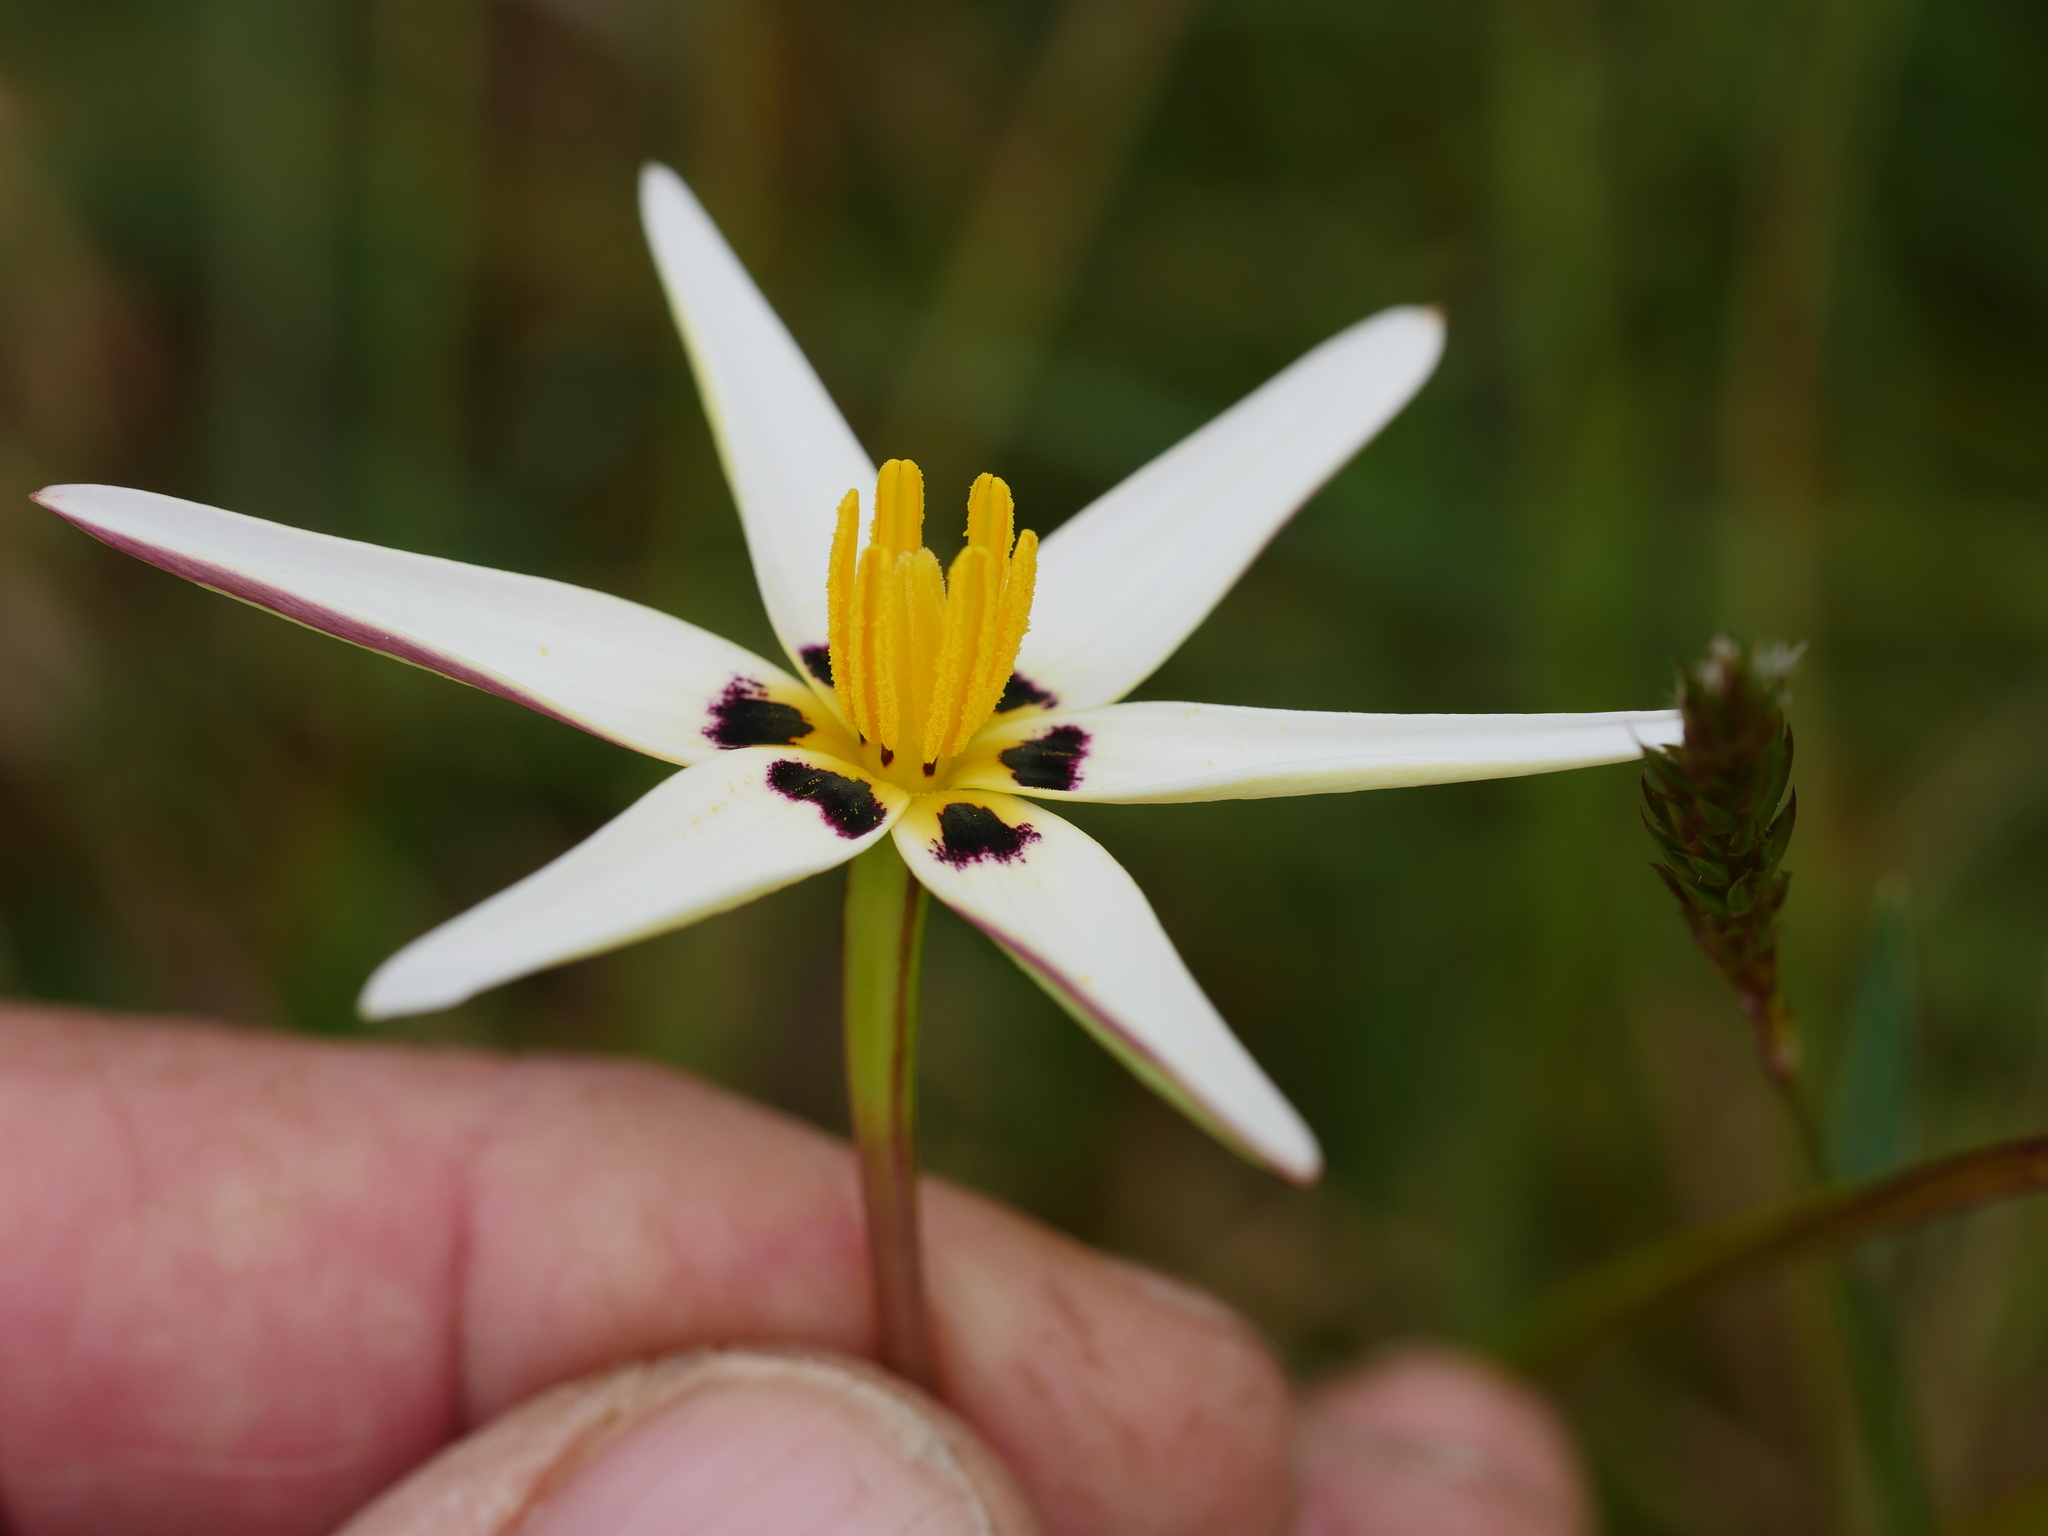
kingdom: Plantae
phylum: Tracheophyta
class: Liliopsida
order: Asparagales
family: Hypoxidaceae
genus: Pauridia
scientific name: Pauridia capensis
